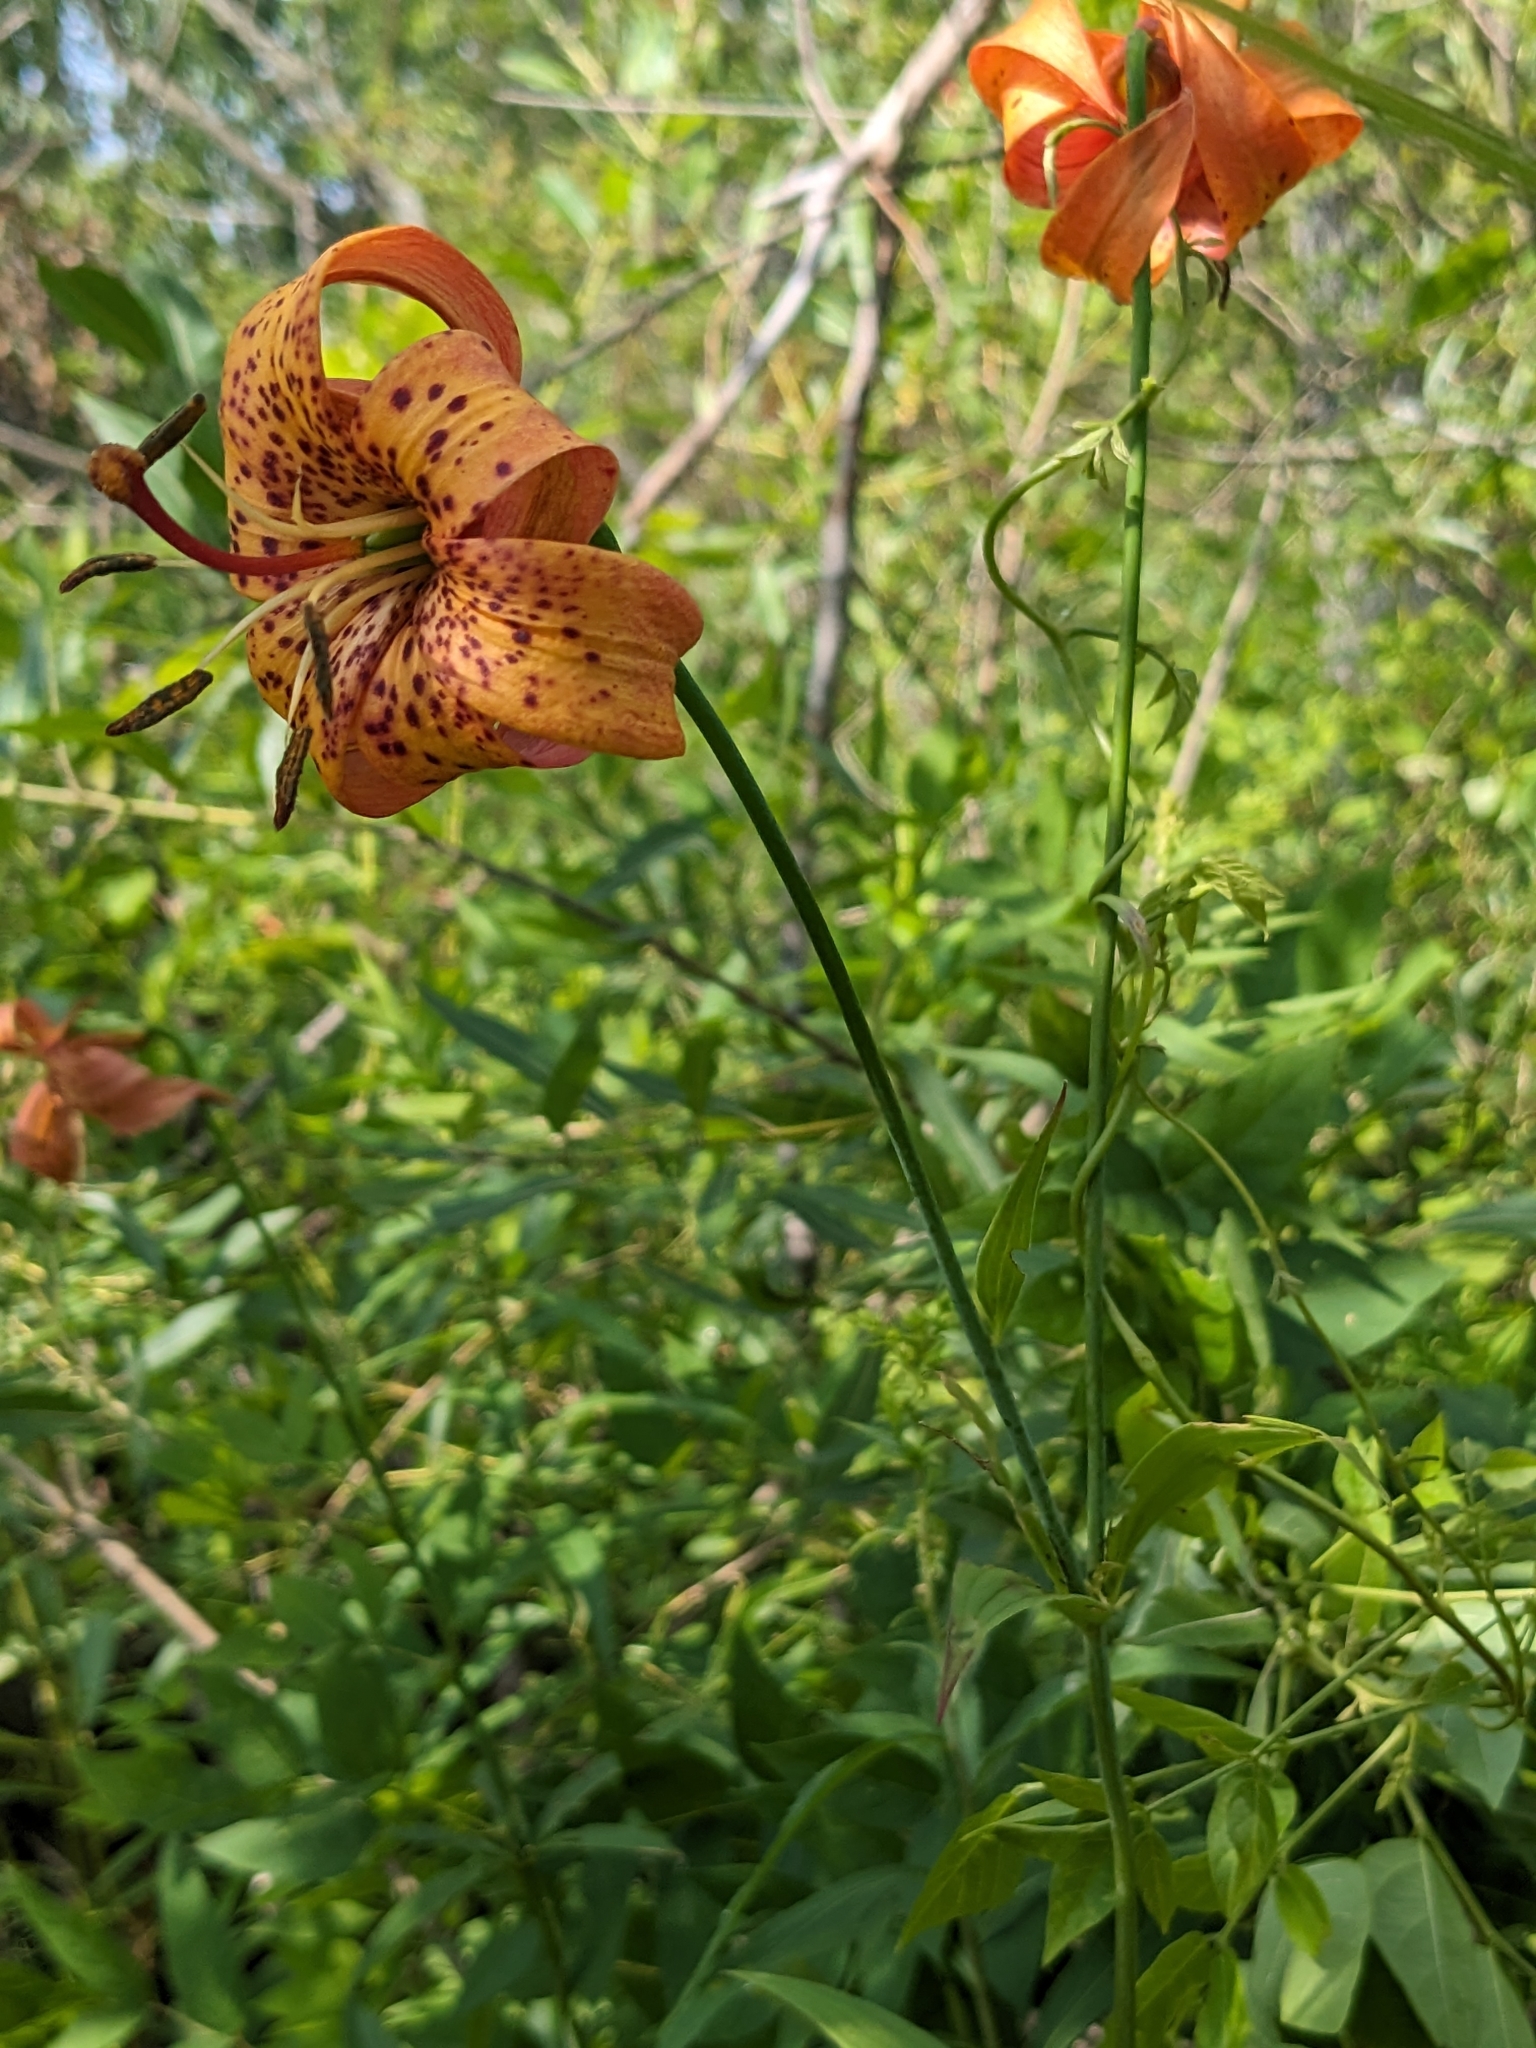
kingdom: Plantae
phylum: Tracheophyta
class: Liliopsida
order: Liliales
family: Liliaceae
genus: Lilium
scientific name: Lilium michiganense
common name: Michigan lily
